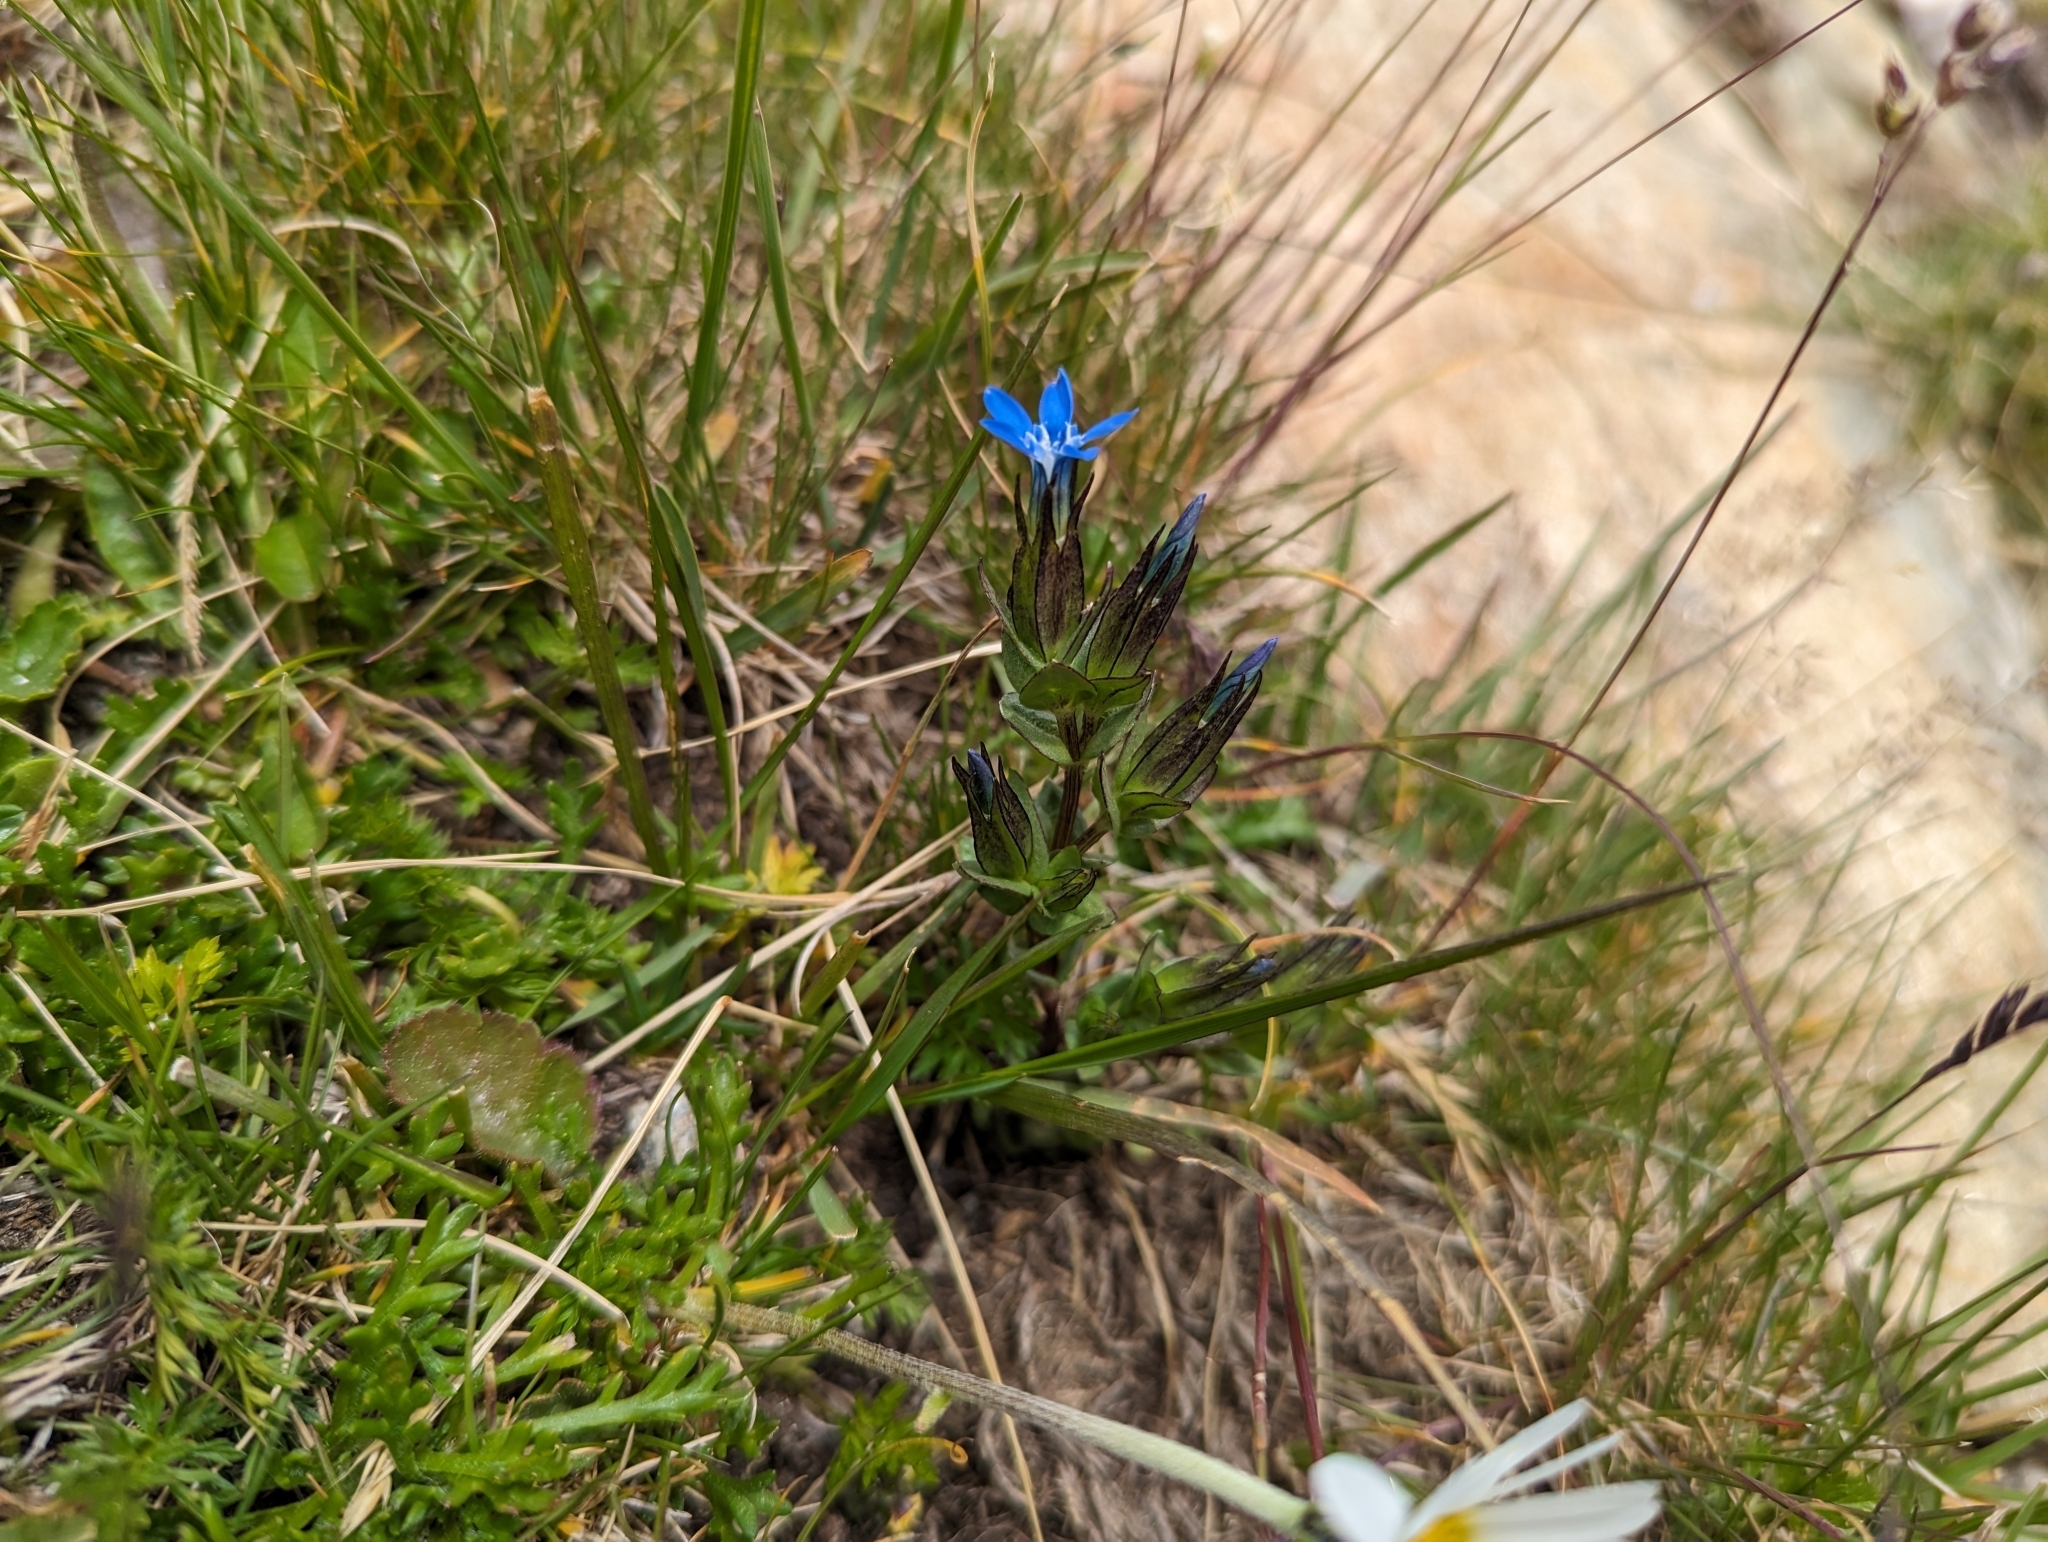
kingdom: Plantae
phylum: Tracheophyta
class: Magnoliopsida
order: Gentianales
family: Gentianaceae
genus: Gentiana
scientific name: Gentiana nivalis
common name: Alpine gentian
